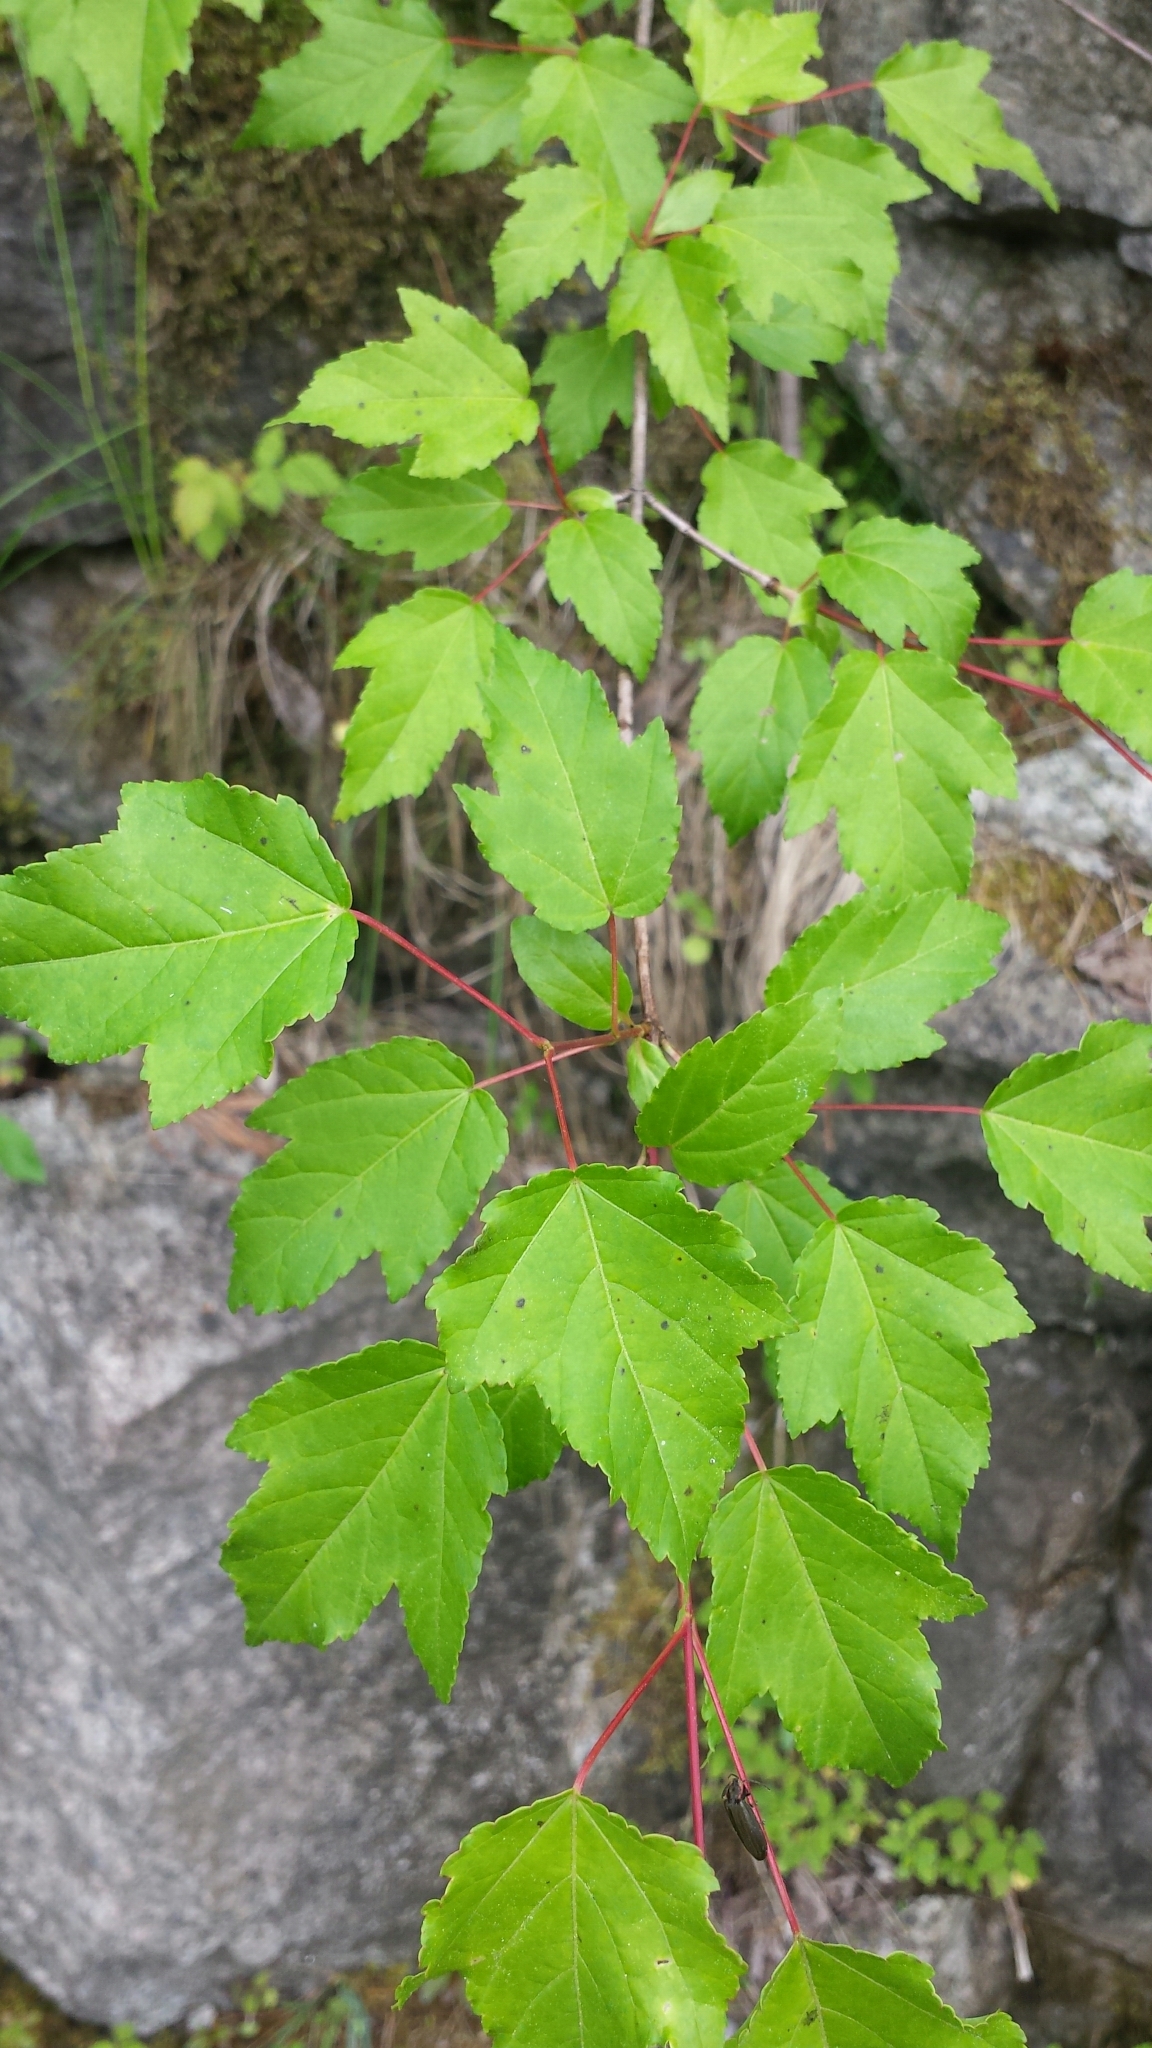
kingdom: Plantae
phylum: Tracheophyta
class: Magnoliopsida
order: Sapindales
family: Sapindaceae
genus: Acer
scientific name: Acer tataricum
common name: Tartar maple
